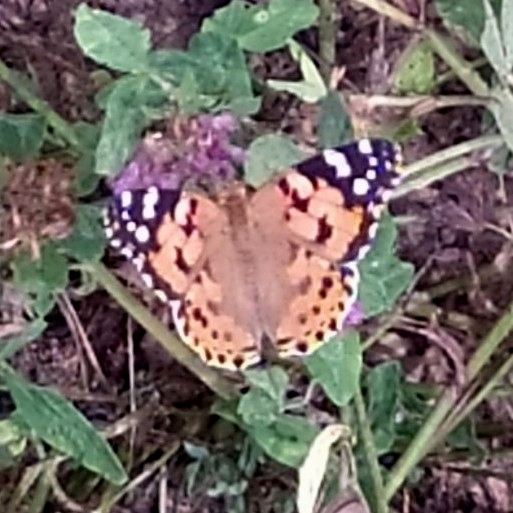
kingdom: Animalia
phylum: Arthropoda
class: Insecta
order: Lepidoptera
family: Nymphalidae
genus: Vanessa
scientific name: Vanessa cardui
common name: Painted lady
